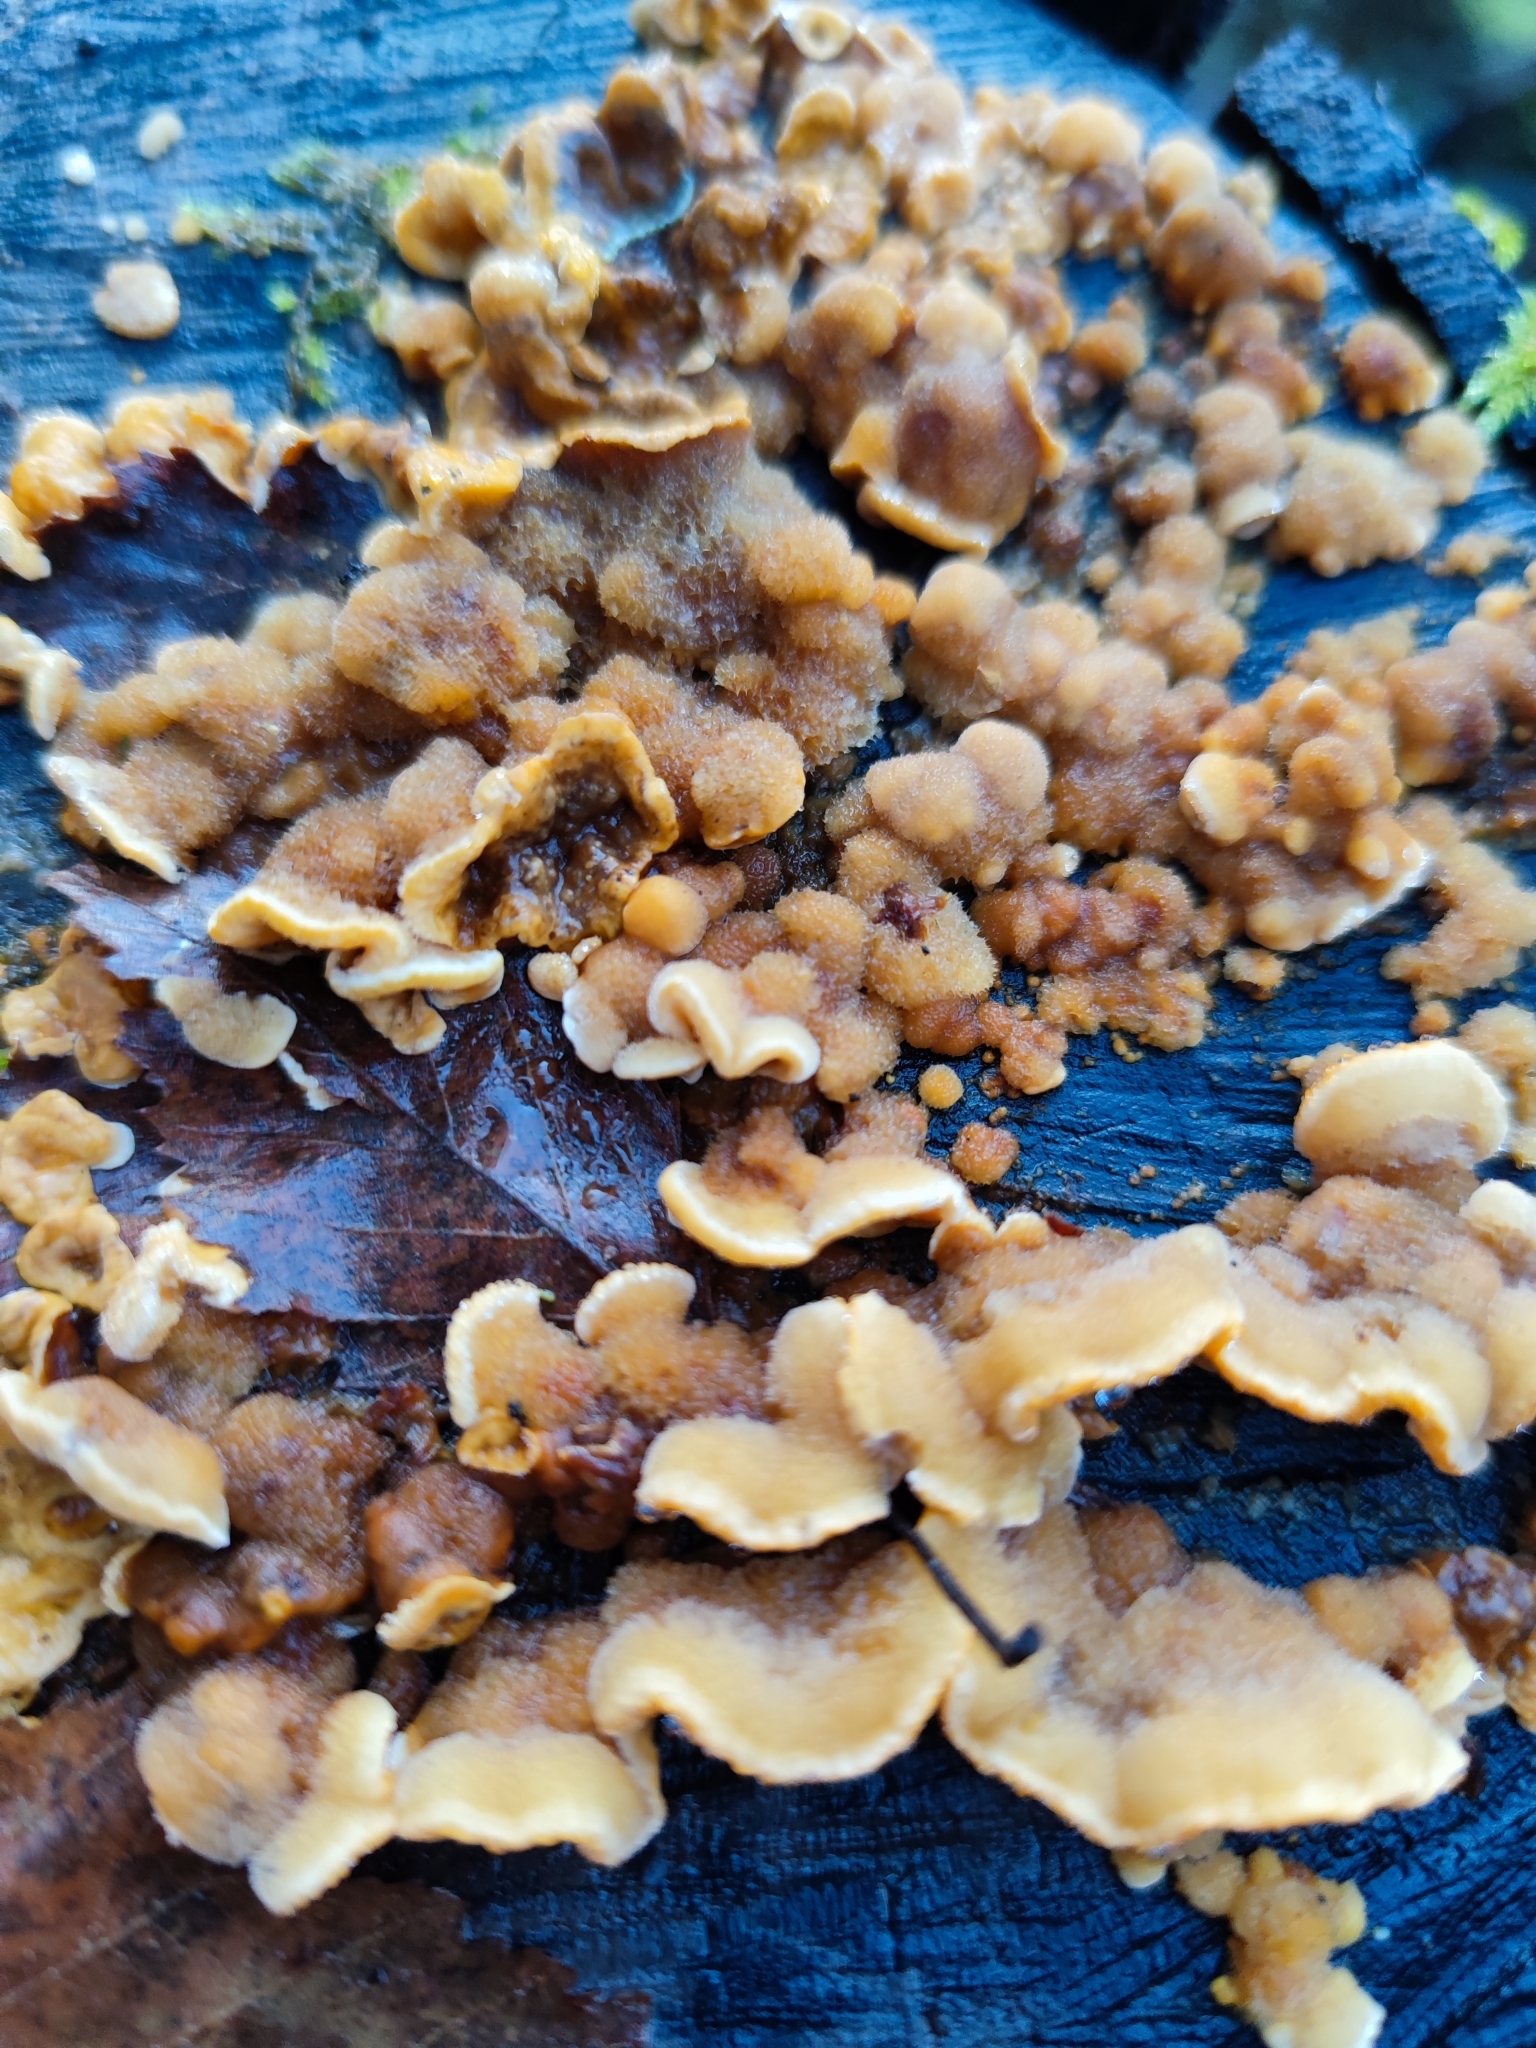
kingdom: Fungi
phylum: Basidiomycota
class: Agaricomycetes
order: Russulales
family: Stereaceae
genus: Stereum
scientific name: Stereum hirsutum
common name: Hairy curtain crust
